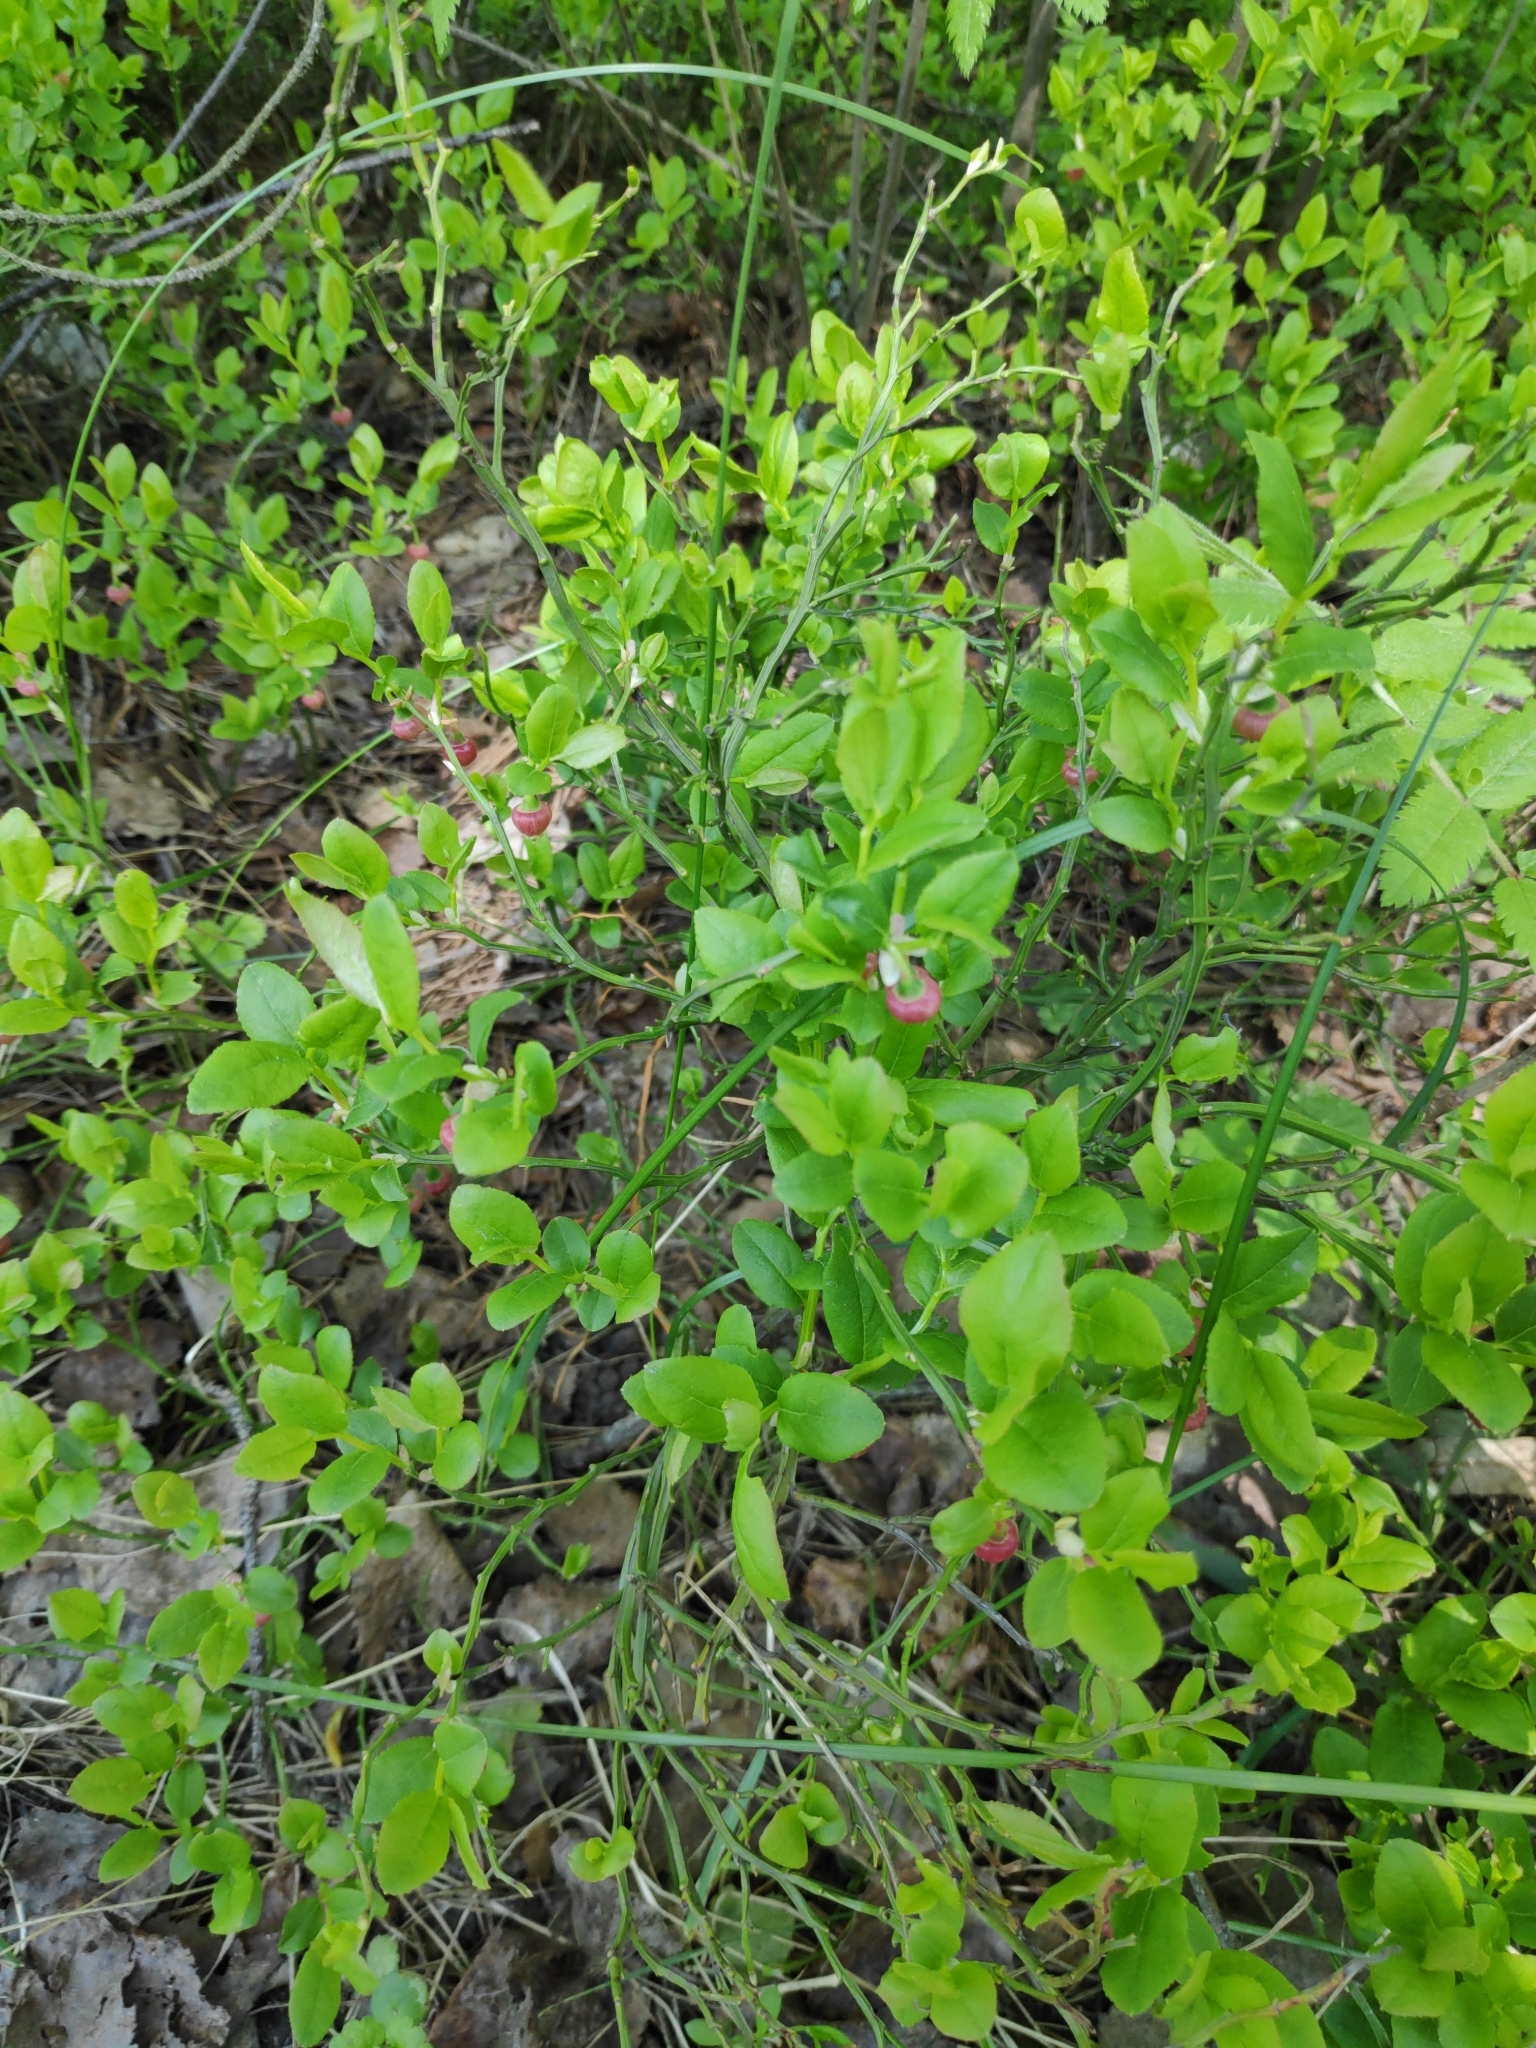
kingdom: Plantae
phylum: Tracheophyta
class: Magnoliopsida
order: Ericales
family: Ericaceae
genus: Vaccinium
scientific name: Vaccinium myrtillus
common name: Bilberry
